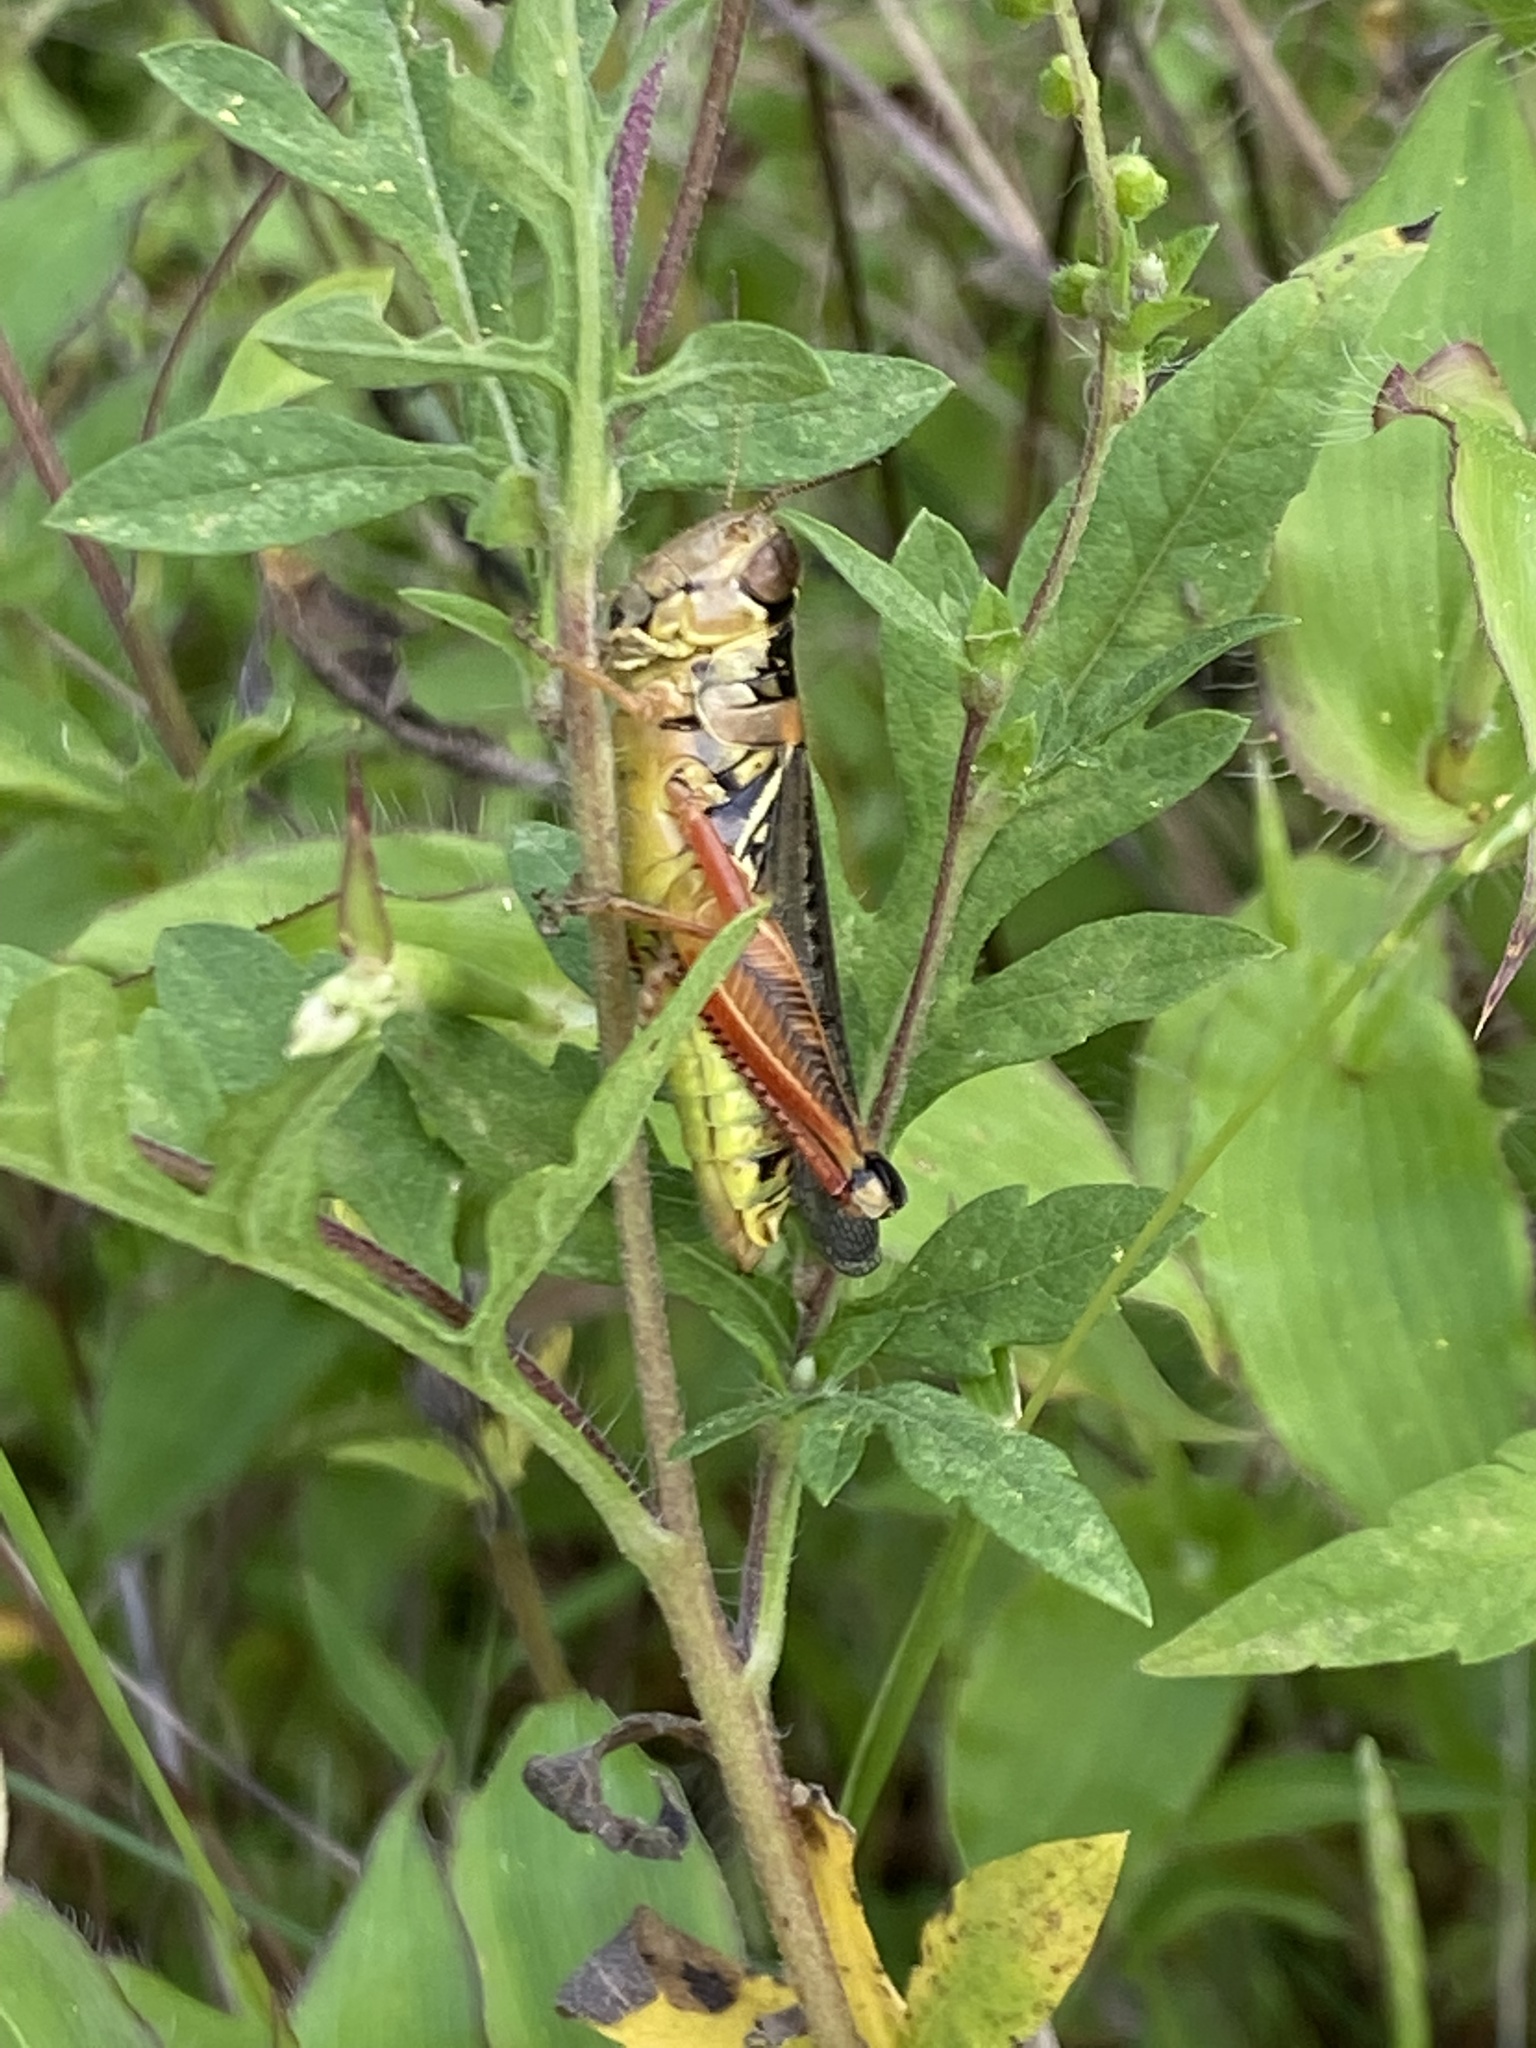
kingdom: Animalia
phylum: Arthropoda
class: Insecta
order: Orthoptera
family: Acrididae
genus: Melanoplus
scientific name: Melanoplus femurrubrum
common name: Red-legged grasshopper
